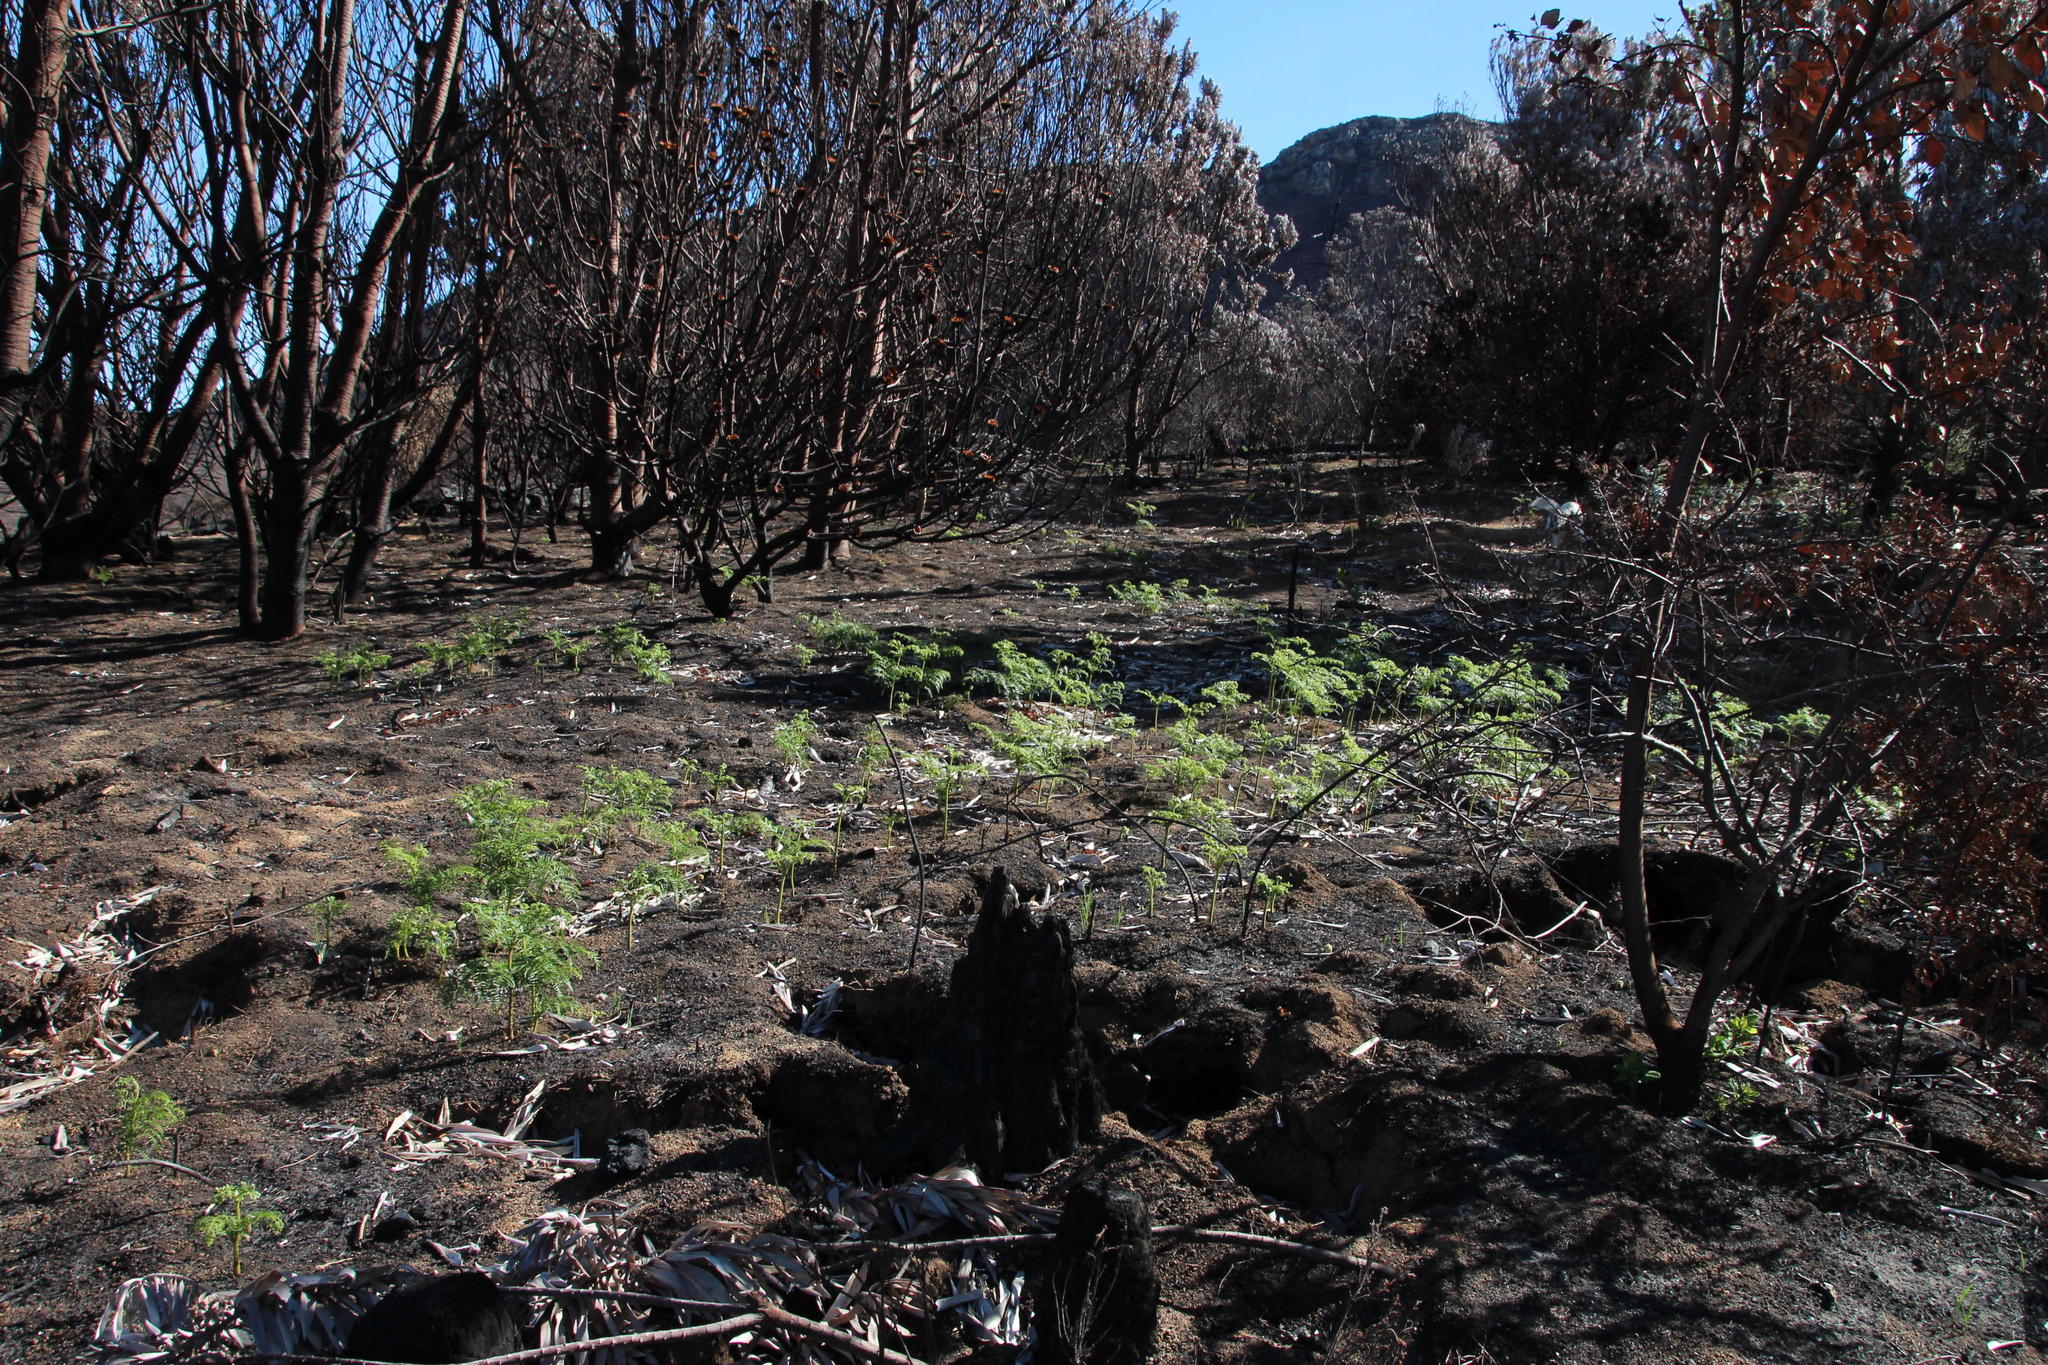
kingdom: Plantae
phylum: Tracheophyta
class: Polypodiopsida
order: Polypodiales
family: Dennstaedtiaceae
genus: Pteridium
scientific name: Pteridium aquilinum
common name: Bracken
